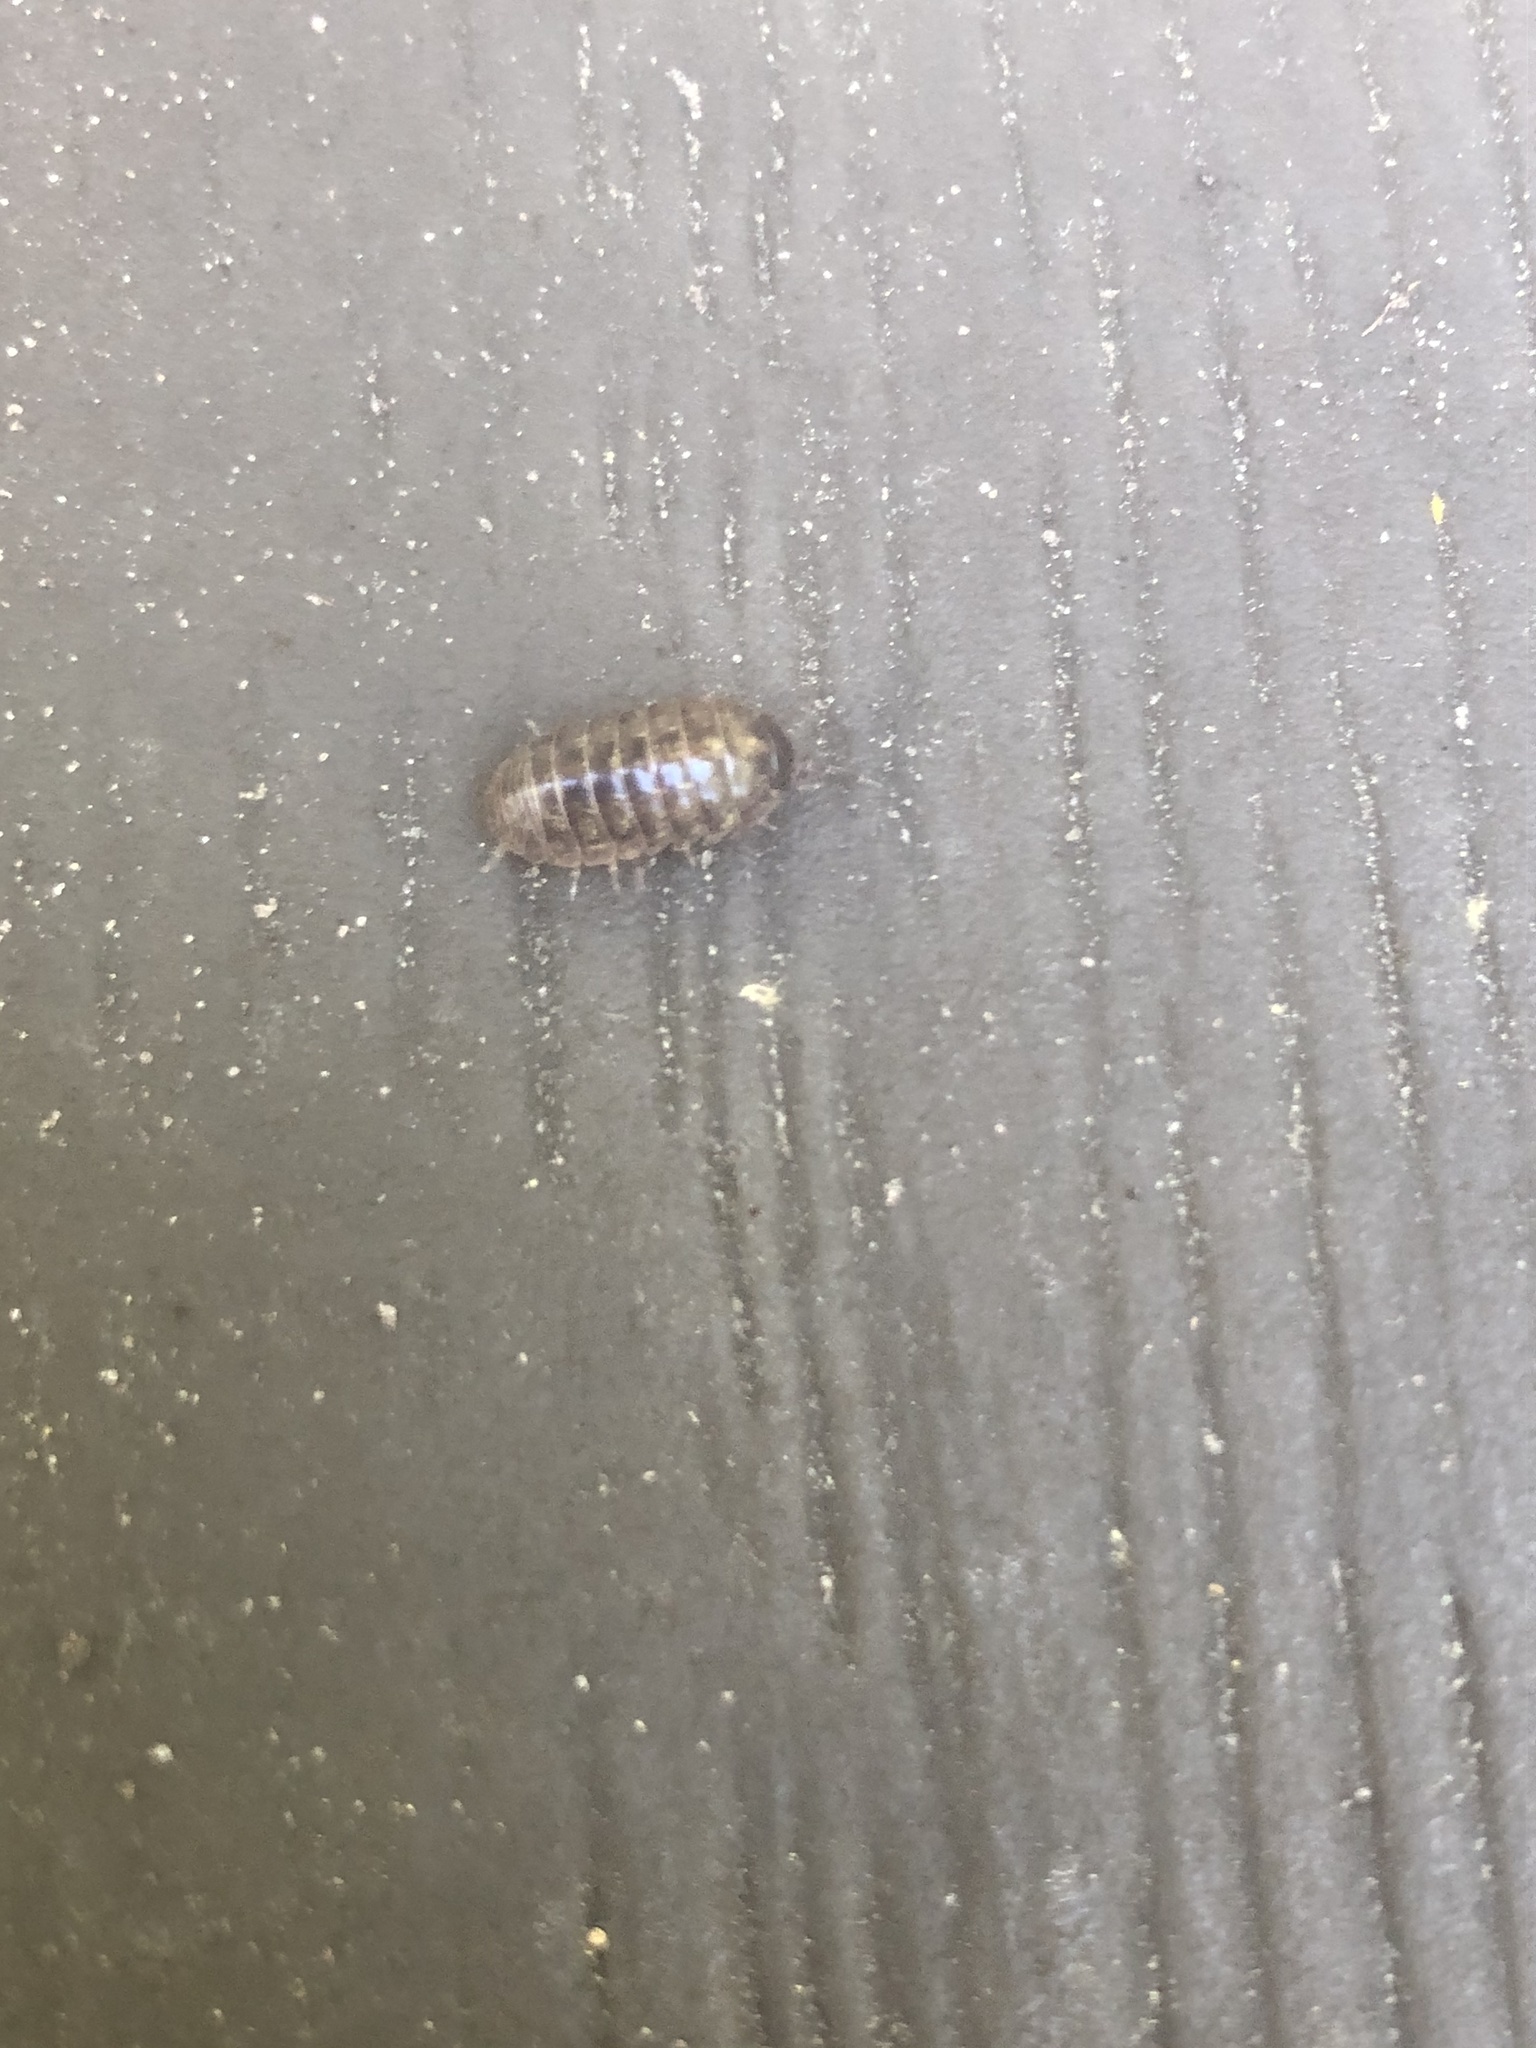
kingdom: Animalia
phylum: Arthropoda
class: Malacostraca
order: Isopoda
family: Armadillidiidae
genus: Armadillidium
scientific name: Armadillidium vulgare
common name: Common pill woodlouse
